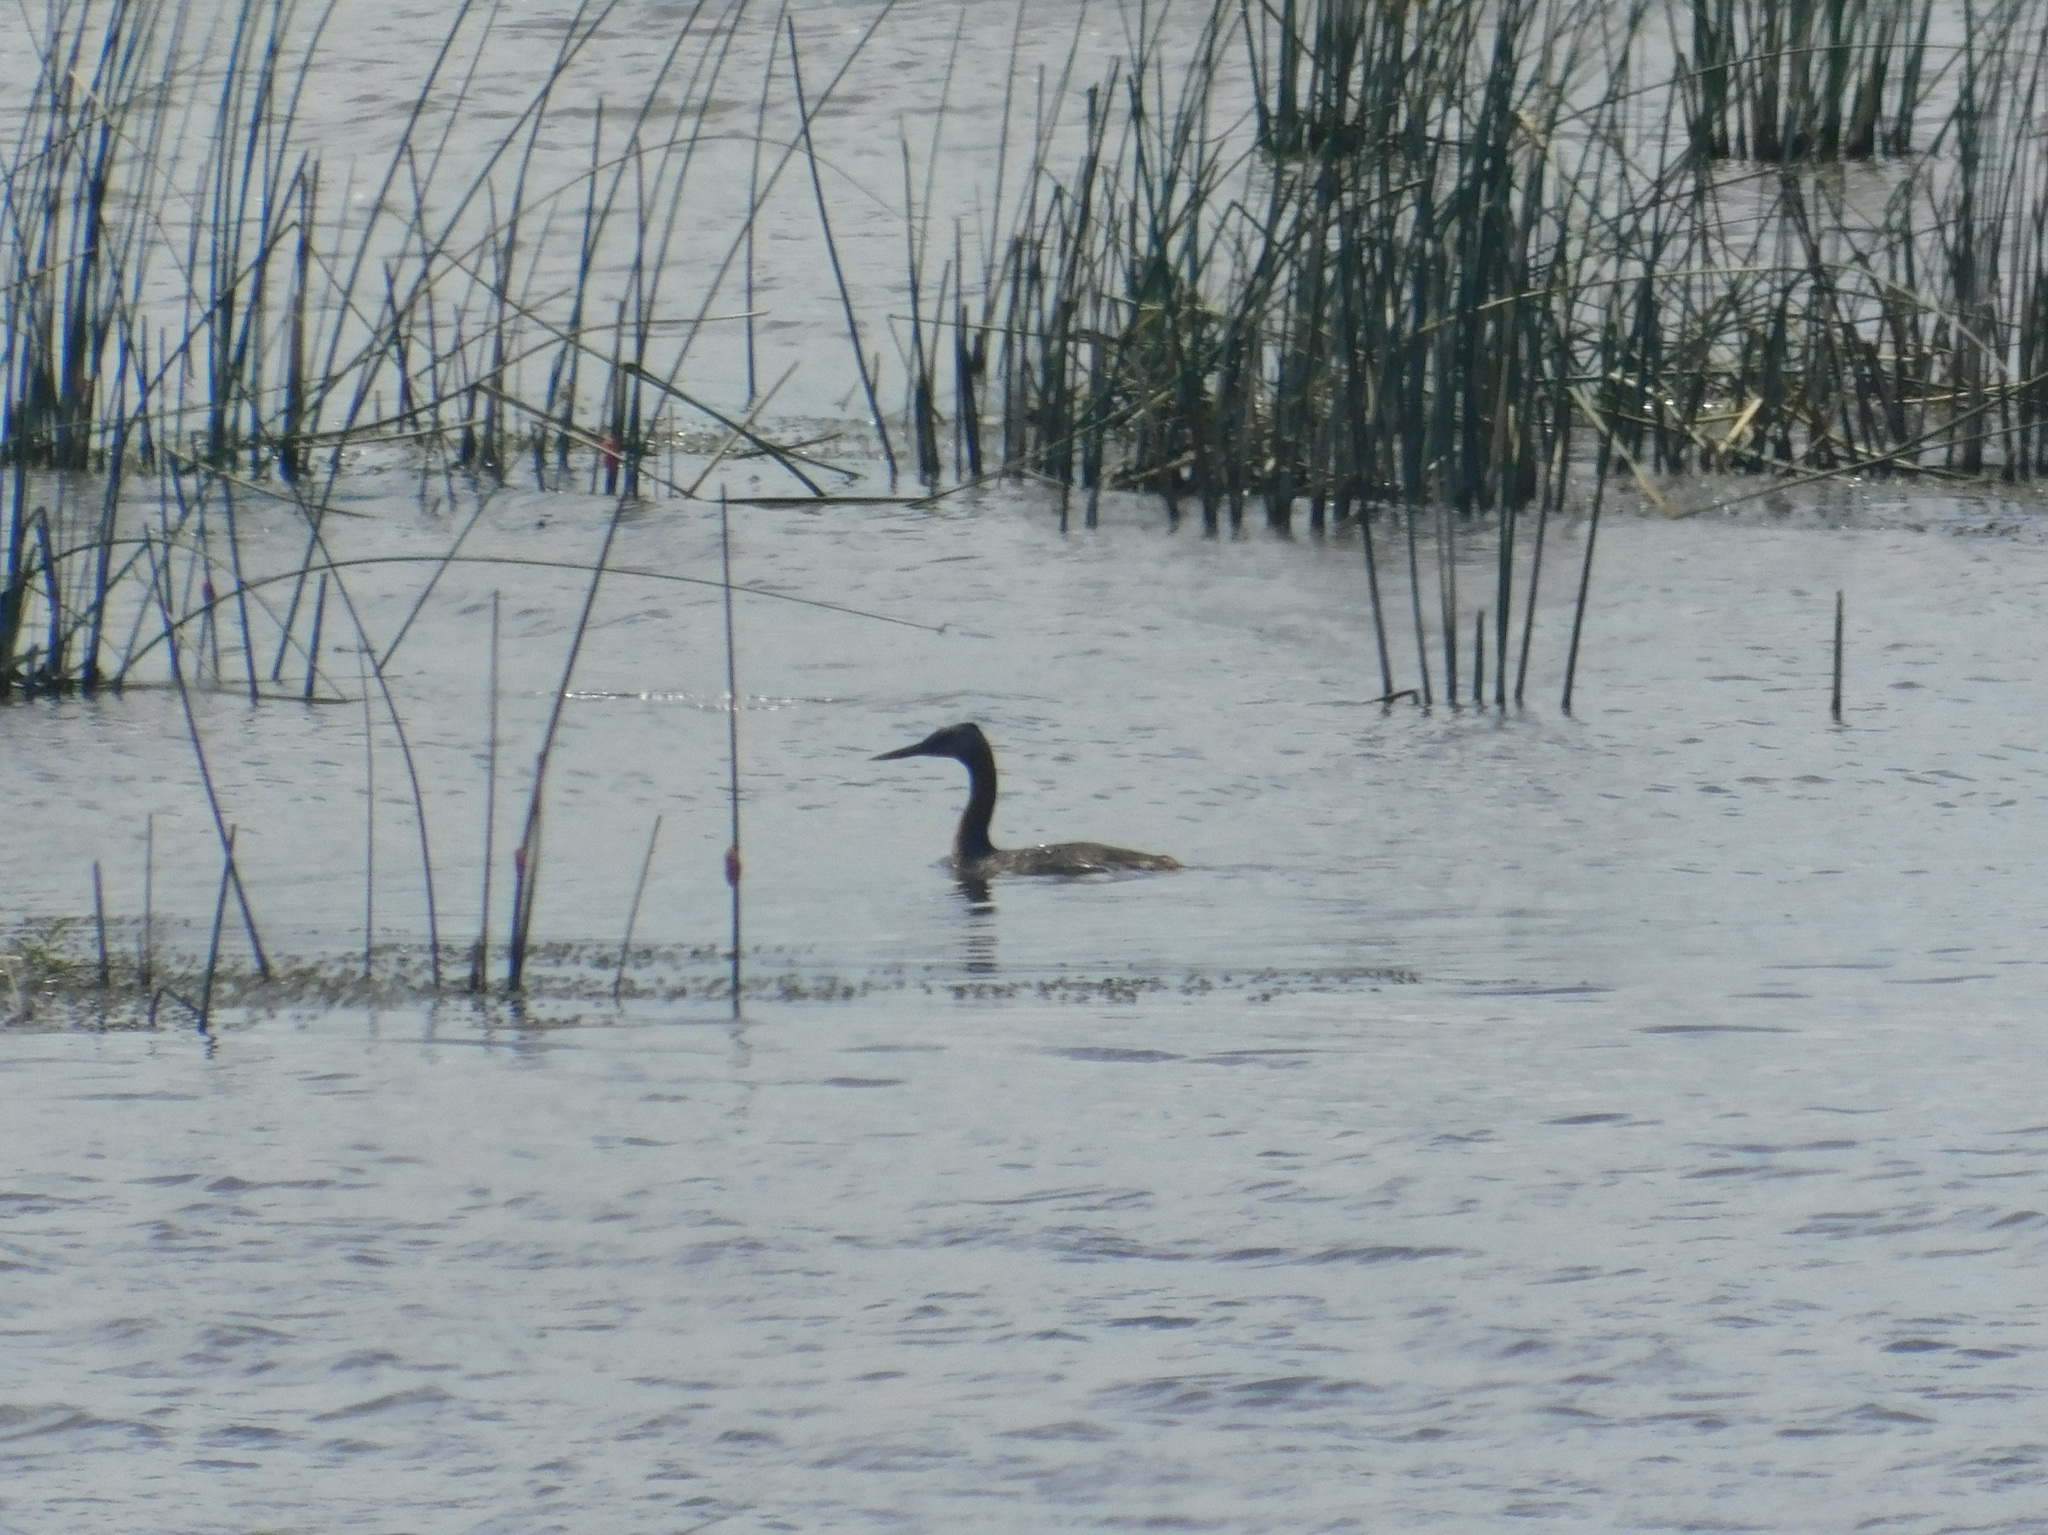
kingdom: Animalia
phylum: Chordata
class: Aves
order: Podicipediformes
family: Podicipedidae
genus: Podiceps
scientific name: Podiceps major
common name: Great grebe
